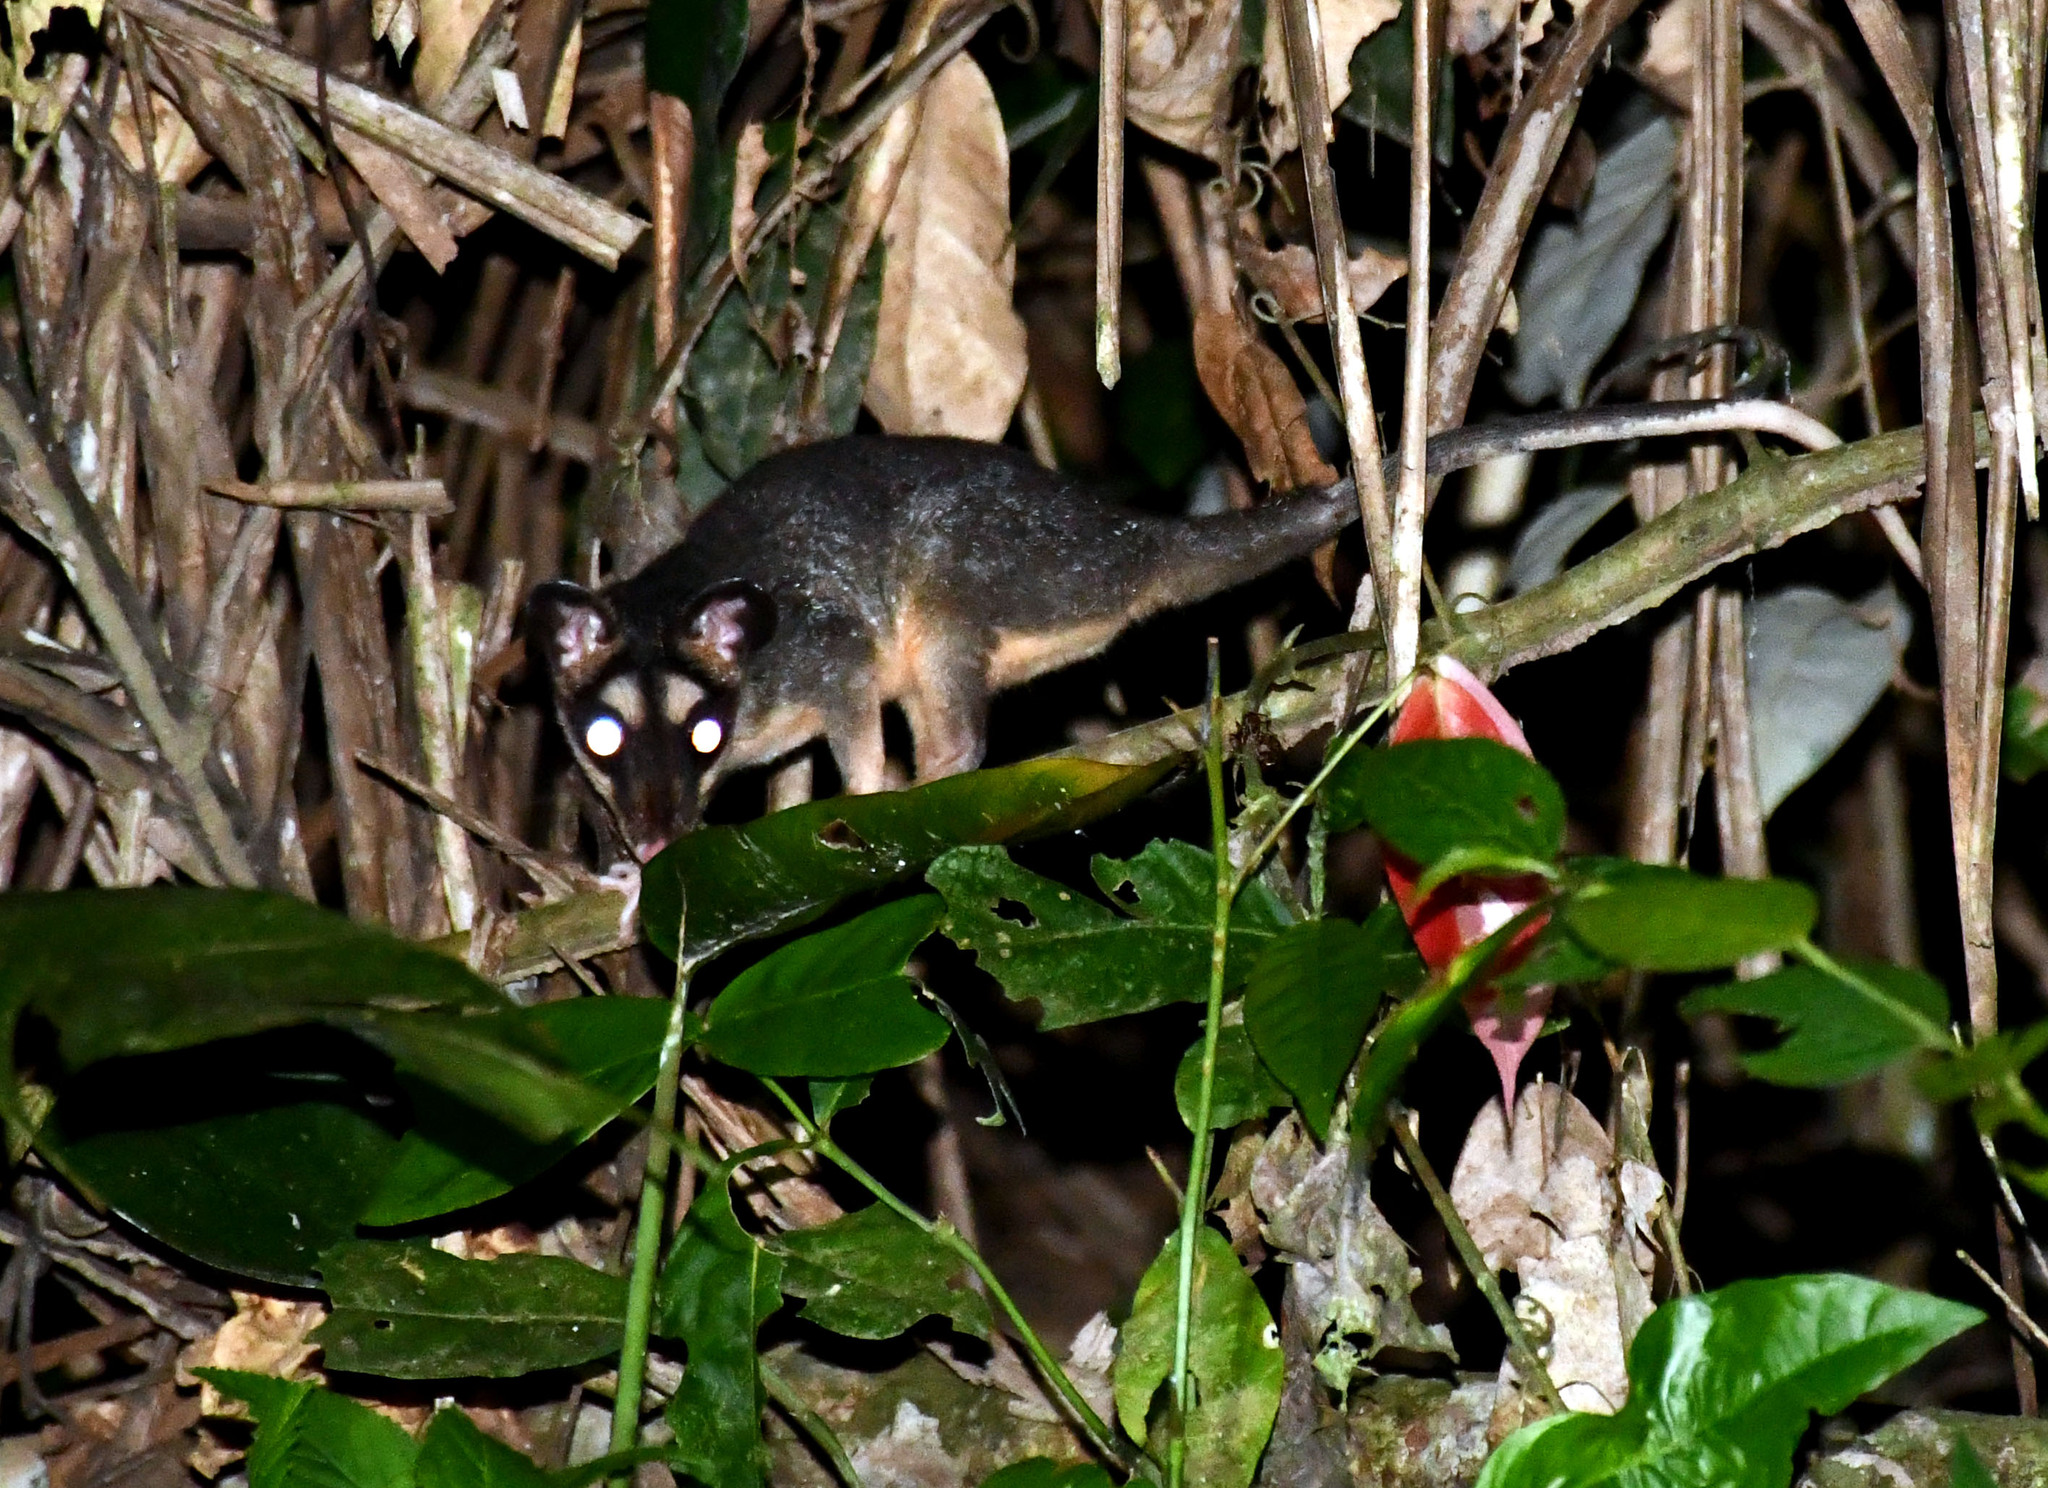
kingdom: Animalia
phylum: Chordata
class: Mammalia
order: Didelphimorphia
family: Didelphidae
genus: Philander
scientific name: Philander
